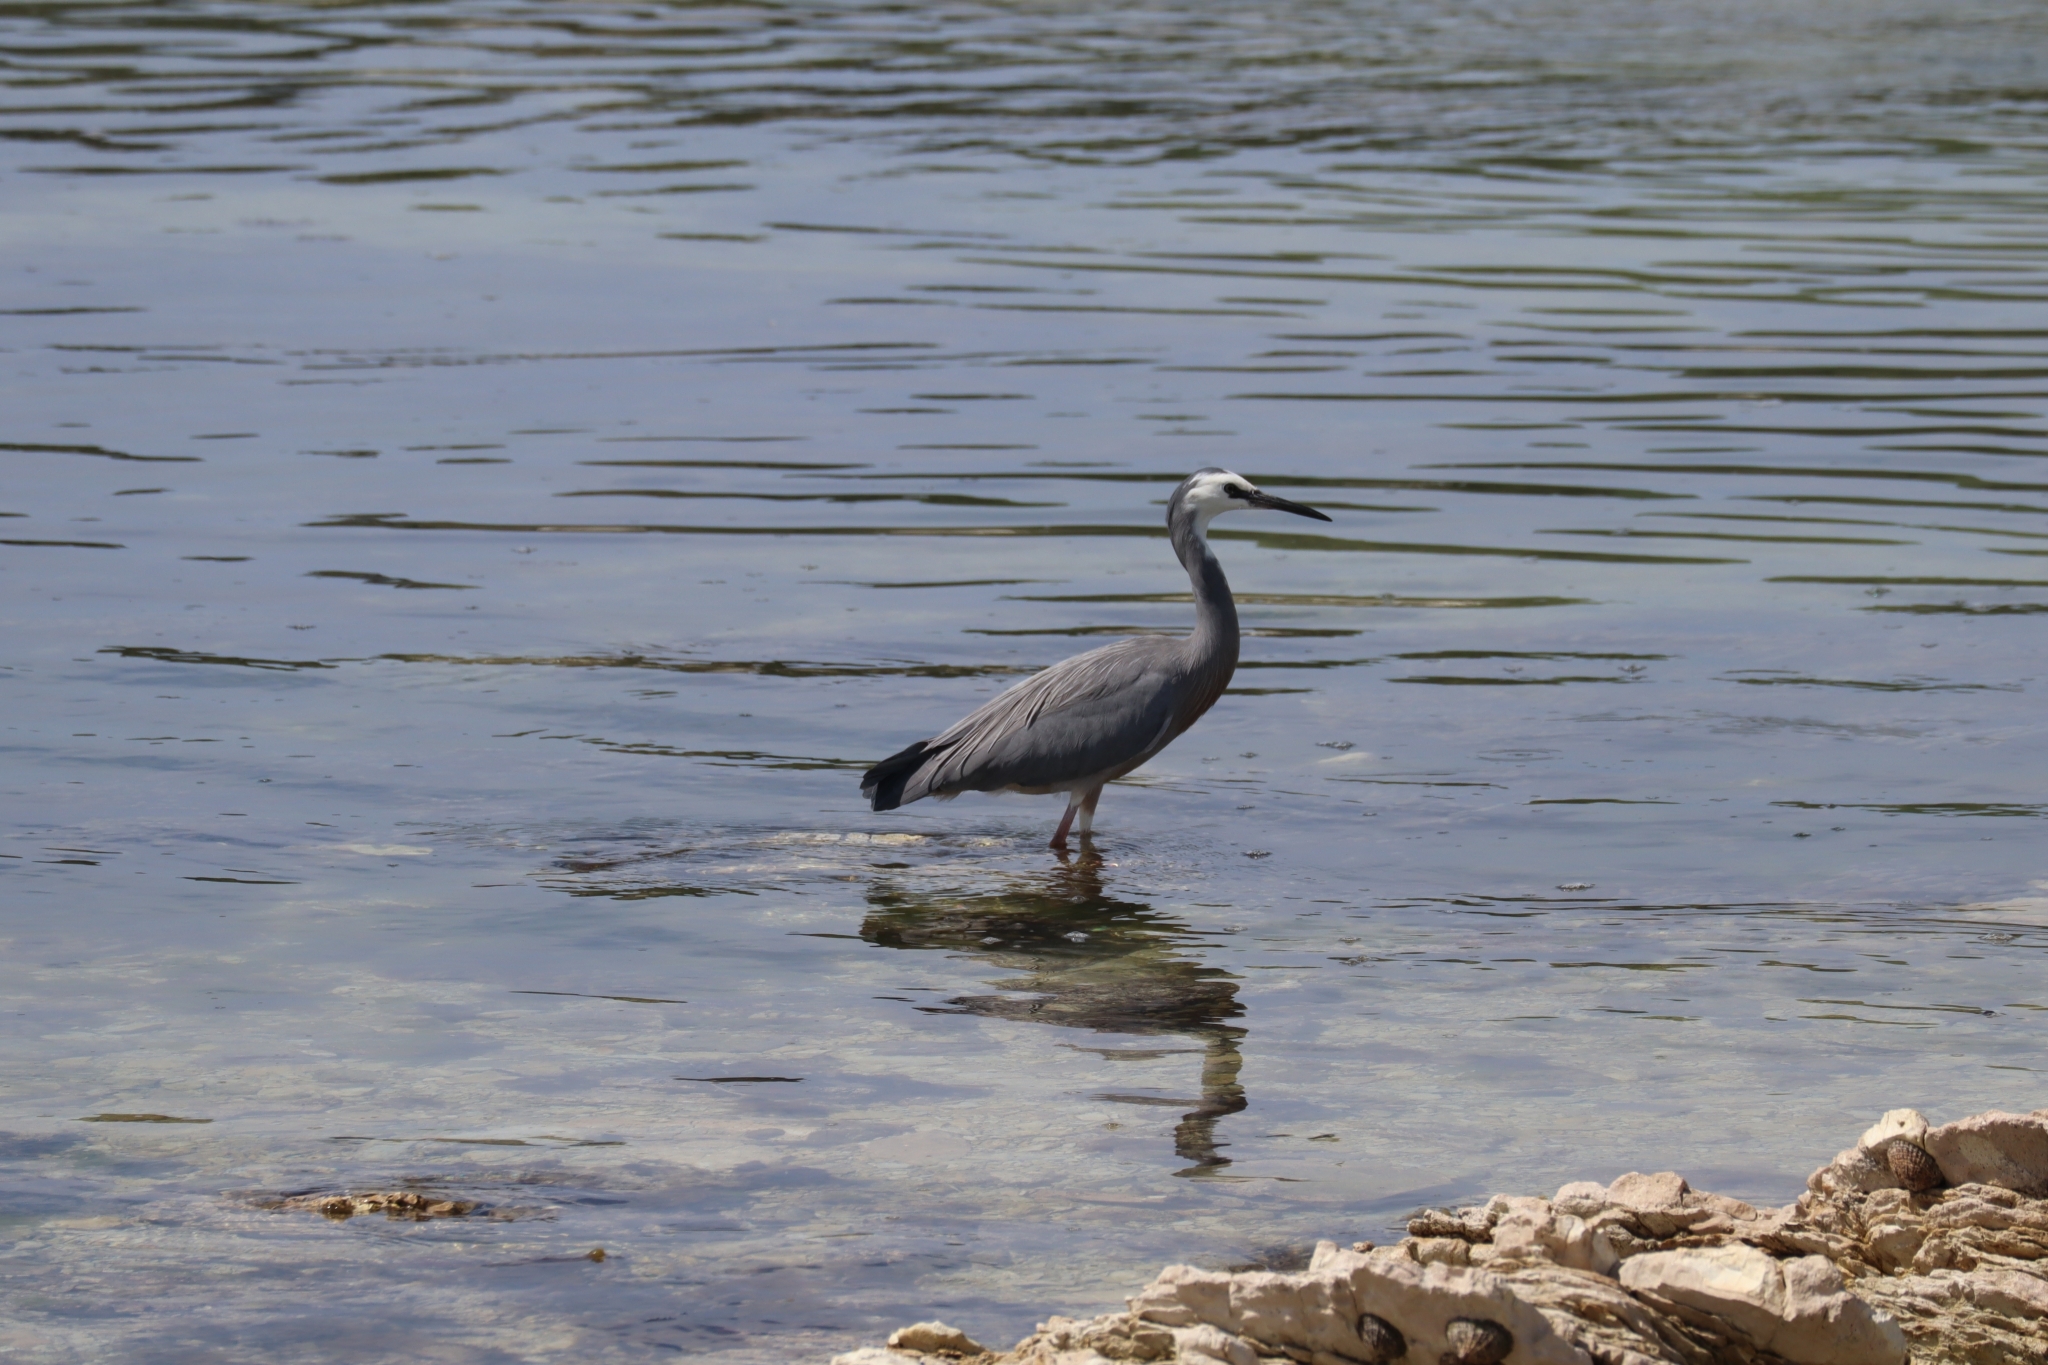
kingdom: Animalia
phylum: Chordata
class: Aves
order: Pelecaniformes
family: Ardeidae
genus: Egretta
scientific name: Egretta novaehollandiae
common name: White-faced heron
